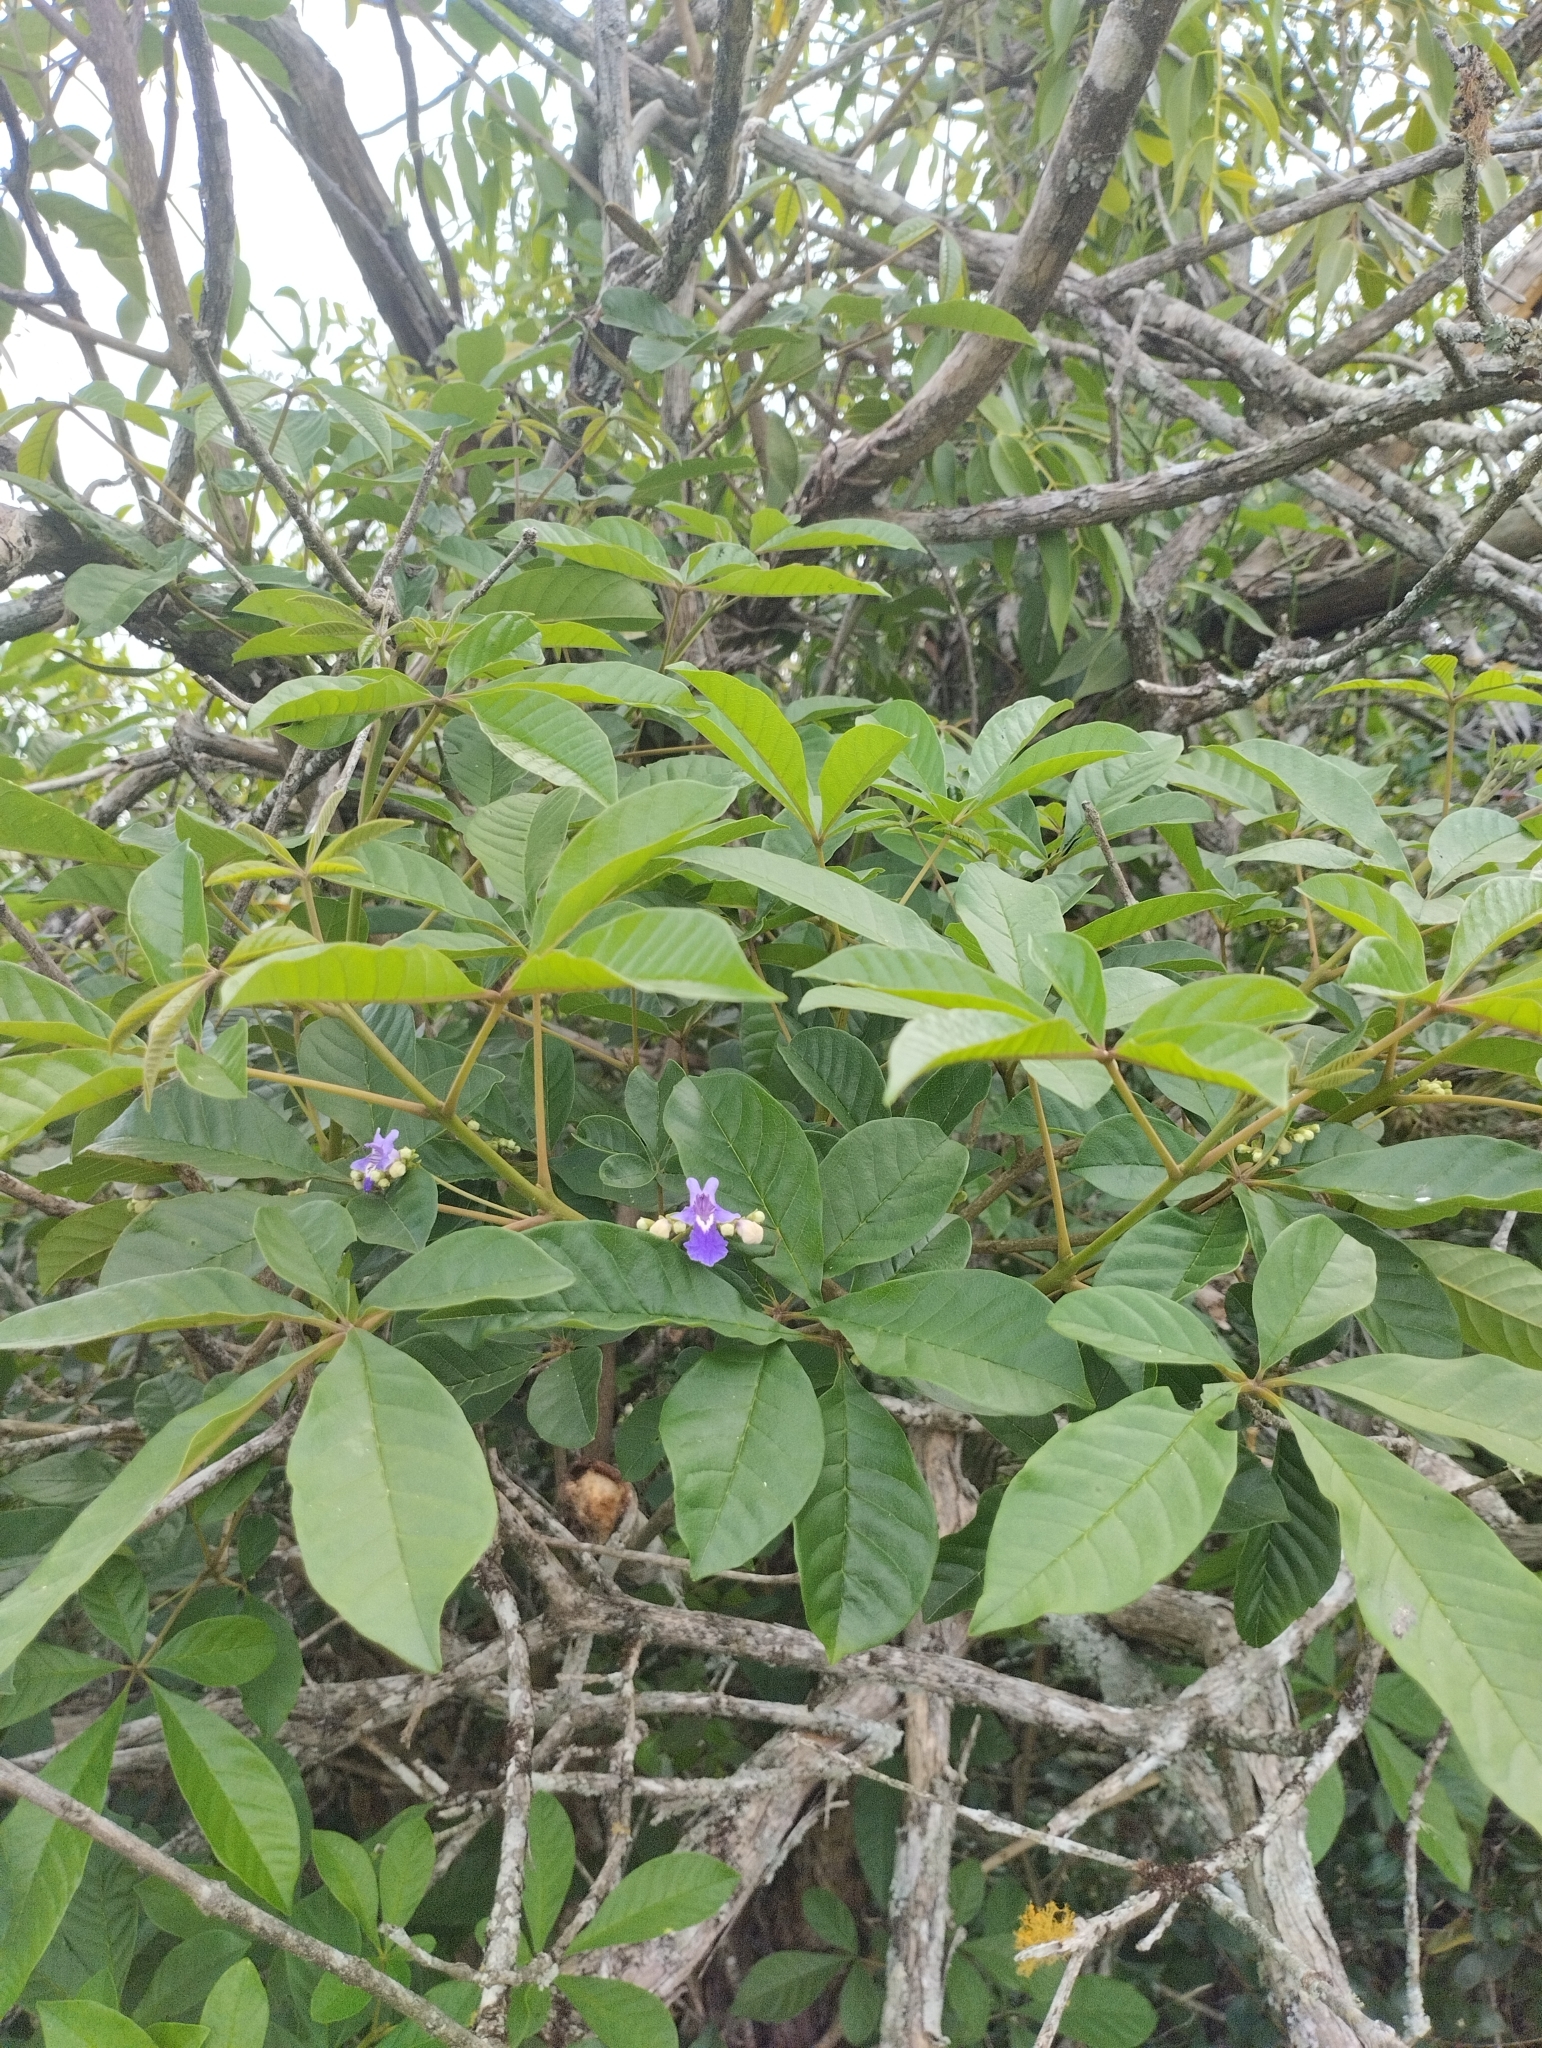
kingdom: Plantae
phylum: Tracheophyta
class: Magnoliopsida
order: Lamiales
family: Lamiaceae
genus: Vitex
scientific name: Vitex megapotamica
